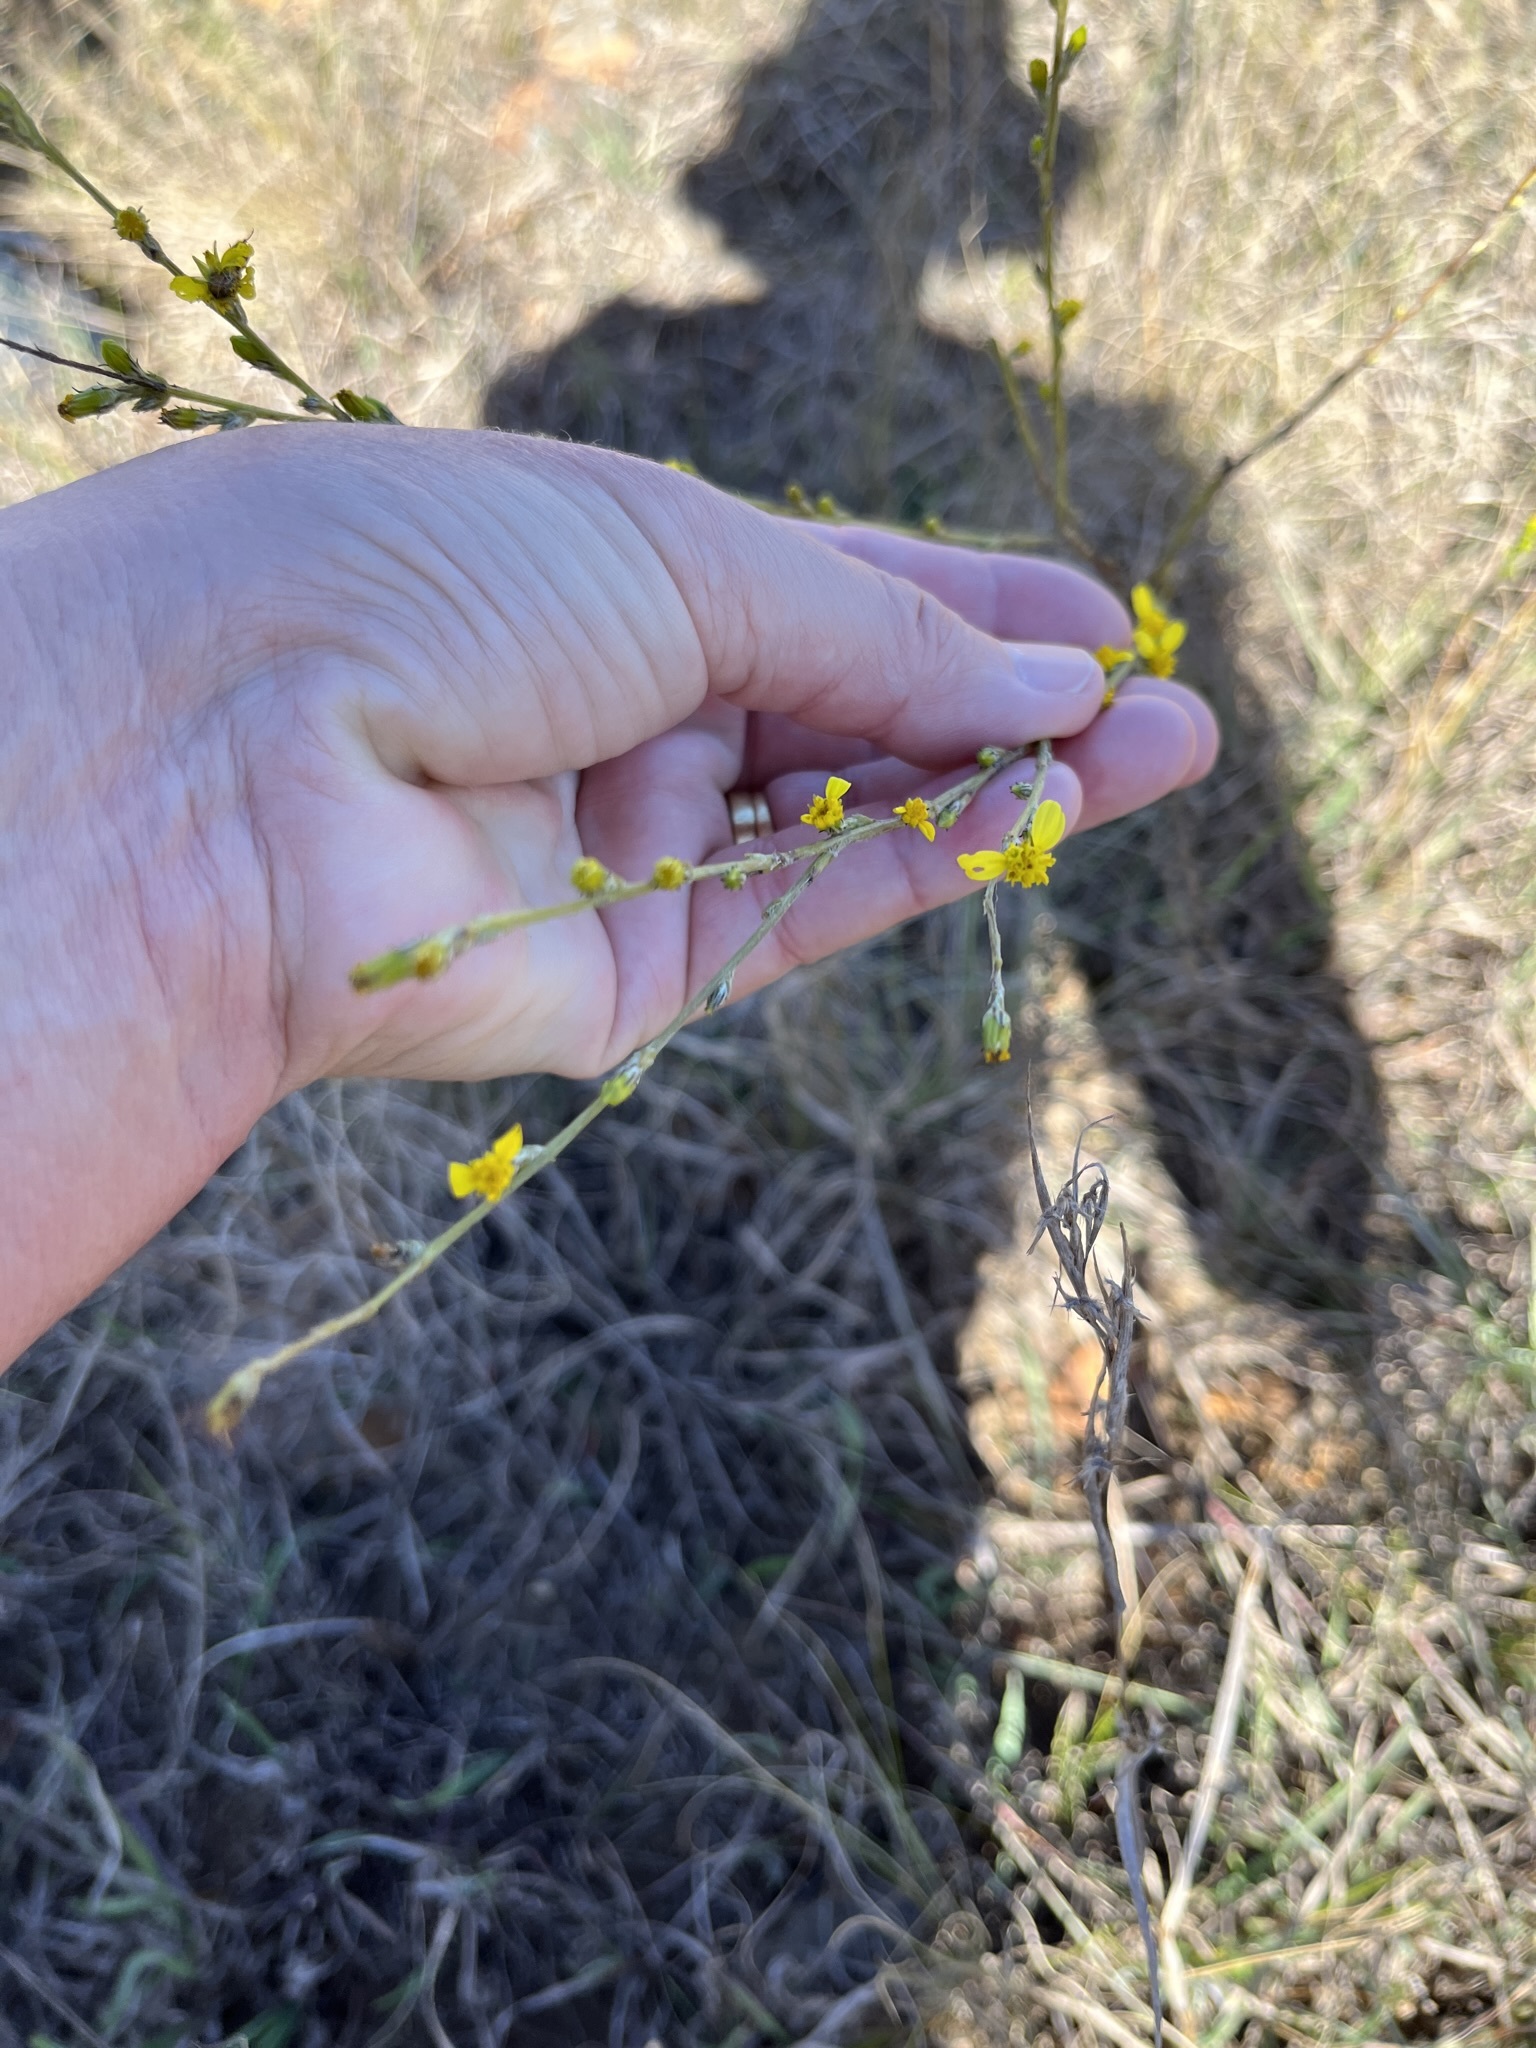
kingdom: Plantae
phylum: Tracheophyta
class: Magnoliopsida
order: Asterales
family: Asteraceae
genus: Senecio
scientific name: Senecio pubigerus
